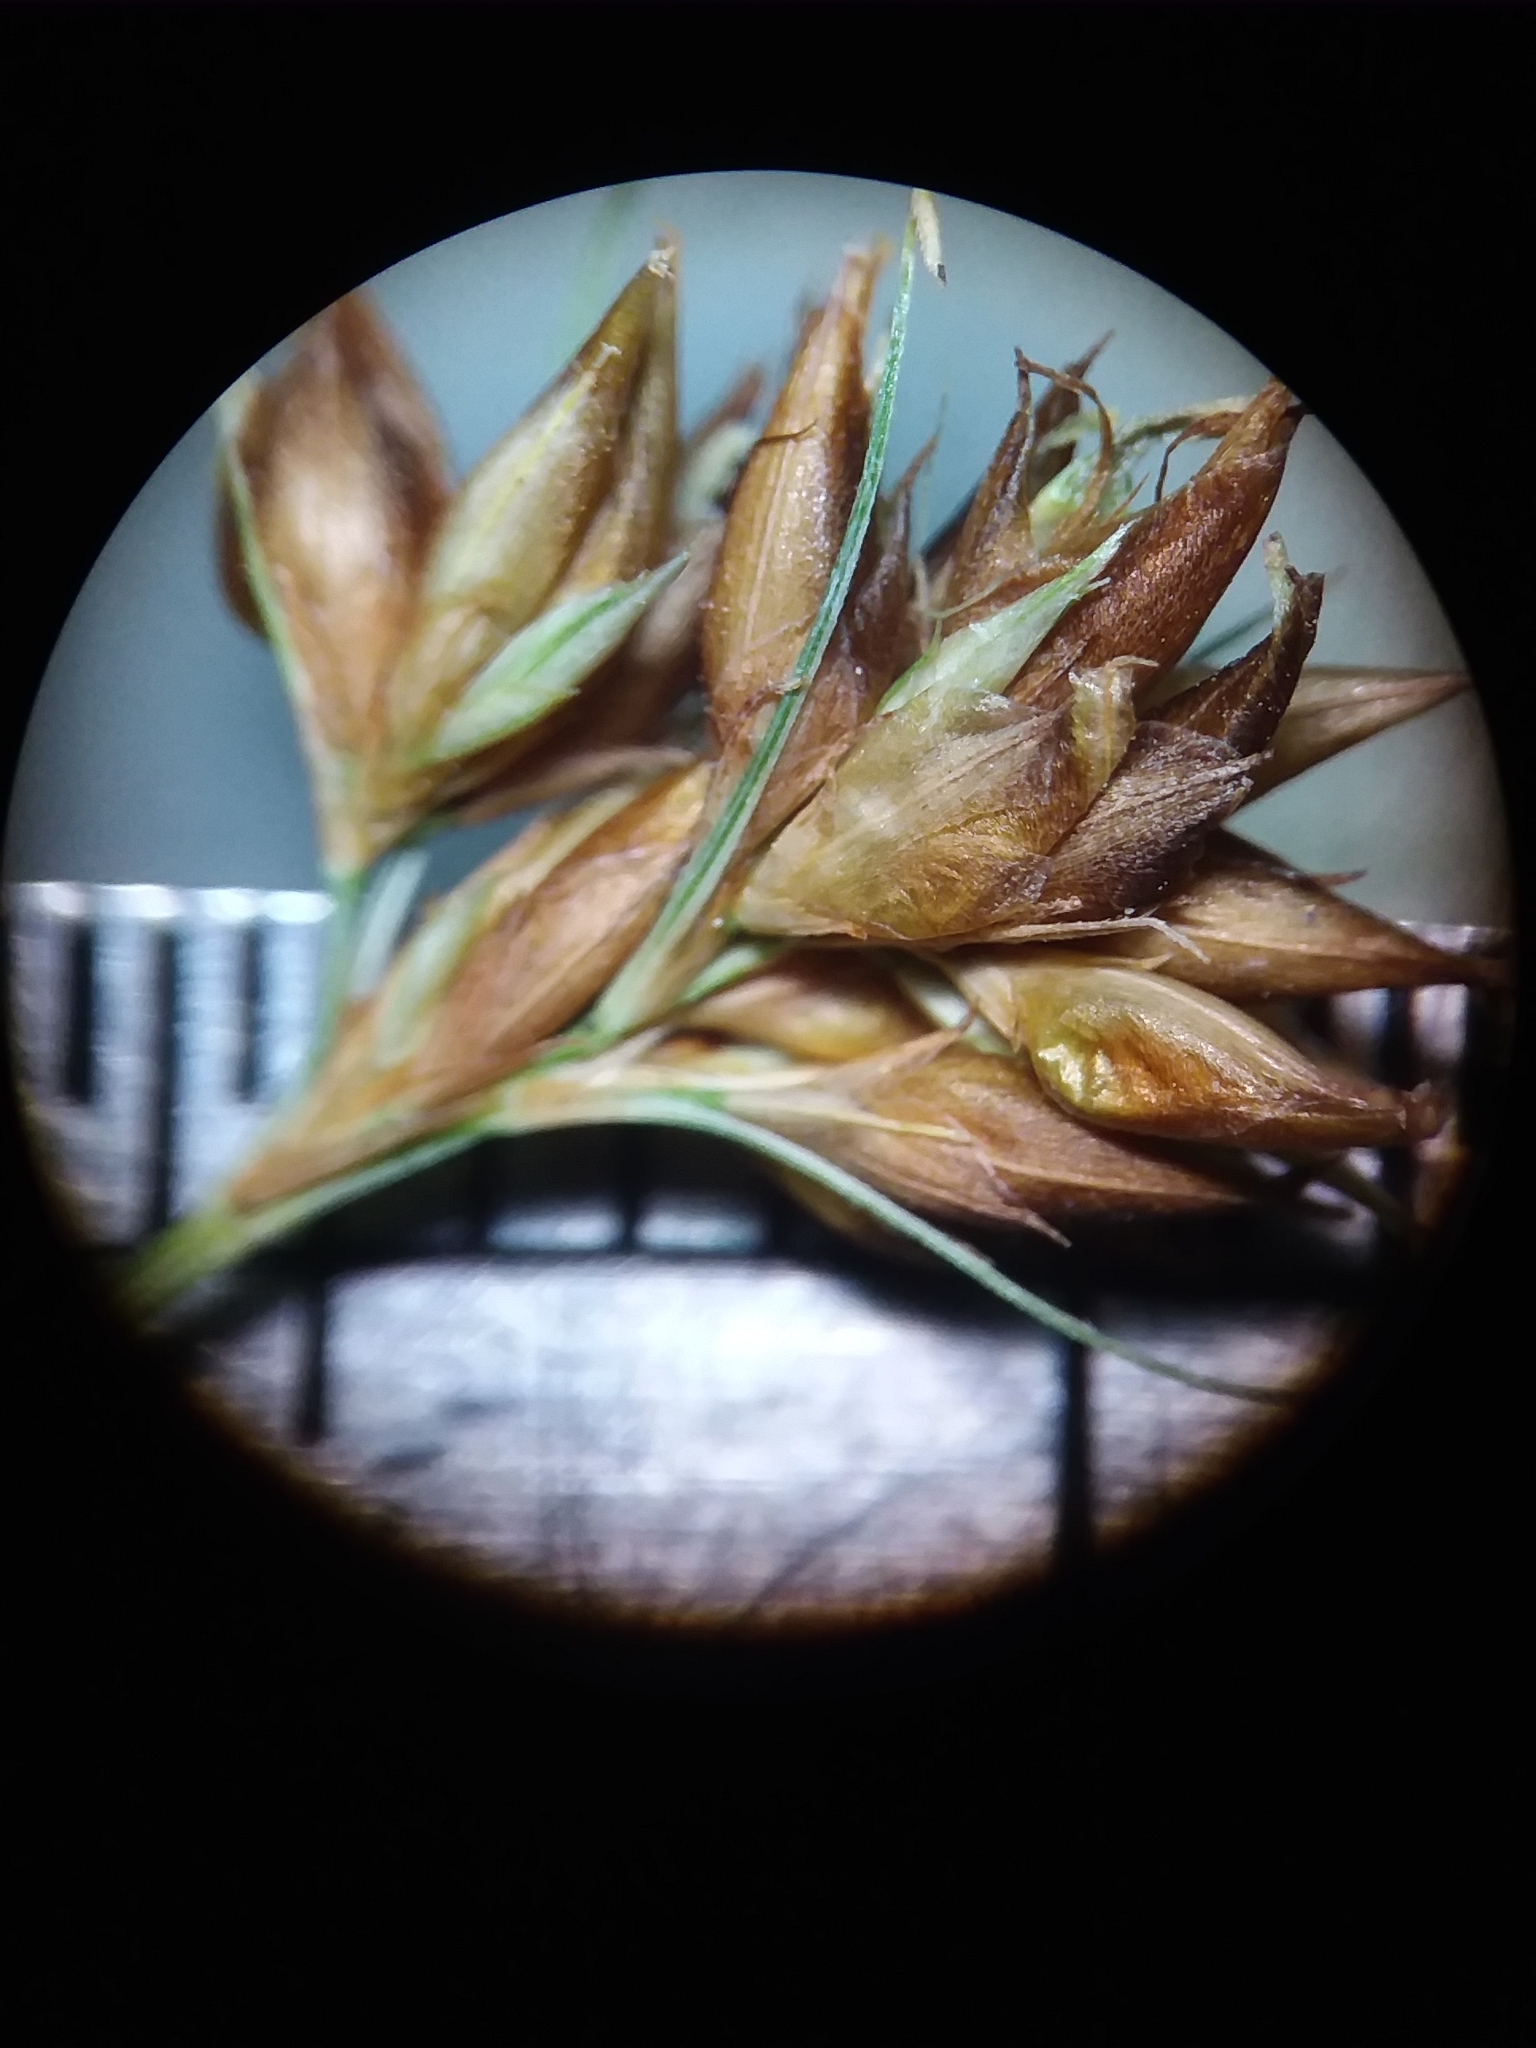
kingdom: Plantae
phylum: Tracheophyta
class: Liliopsida
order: Poales
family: Cyperaceae
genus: Rhynchospora
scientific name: Rhynchospora gracilenta
